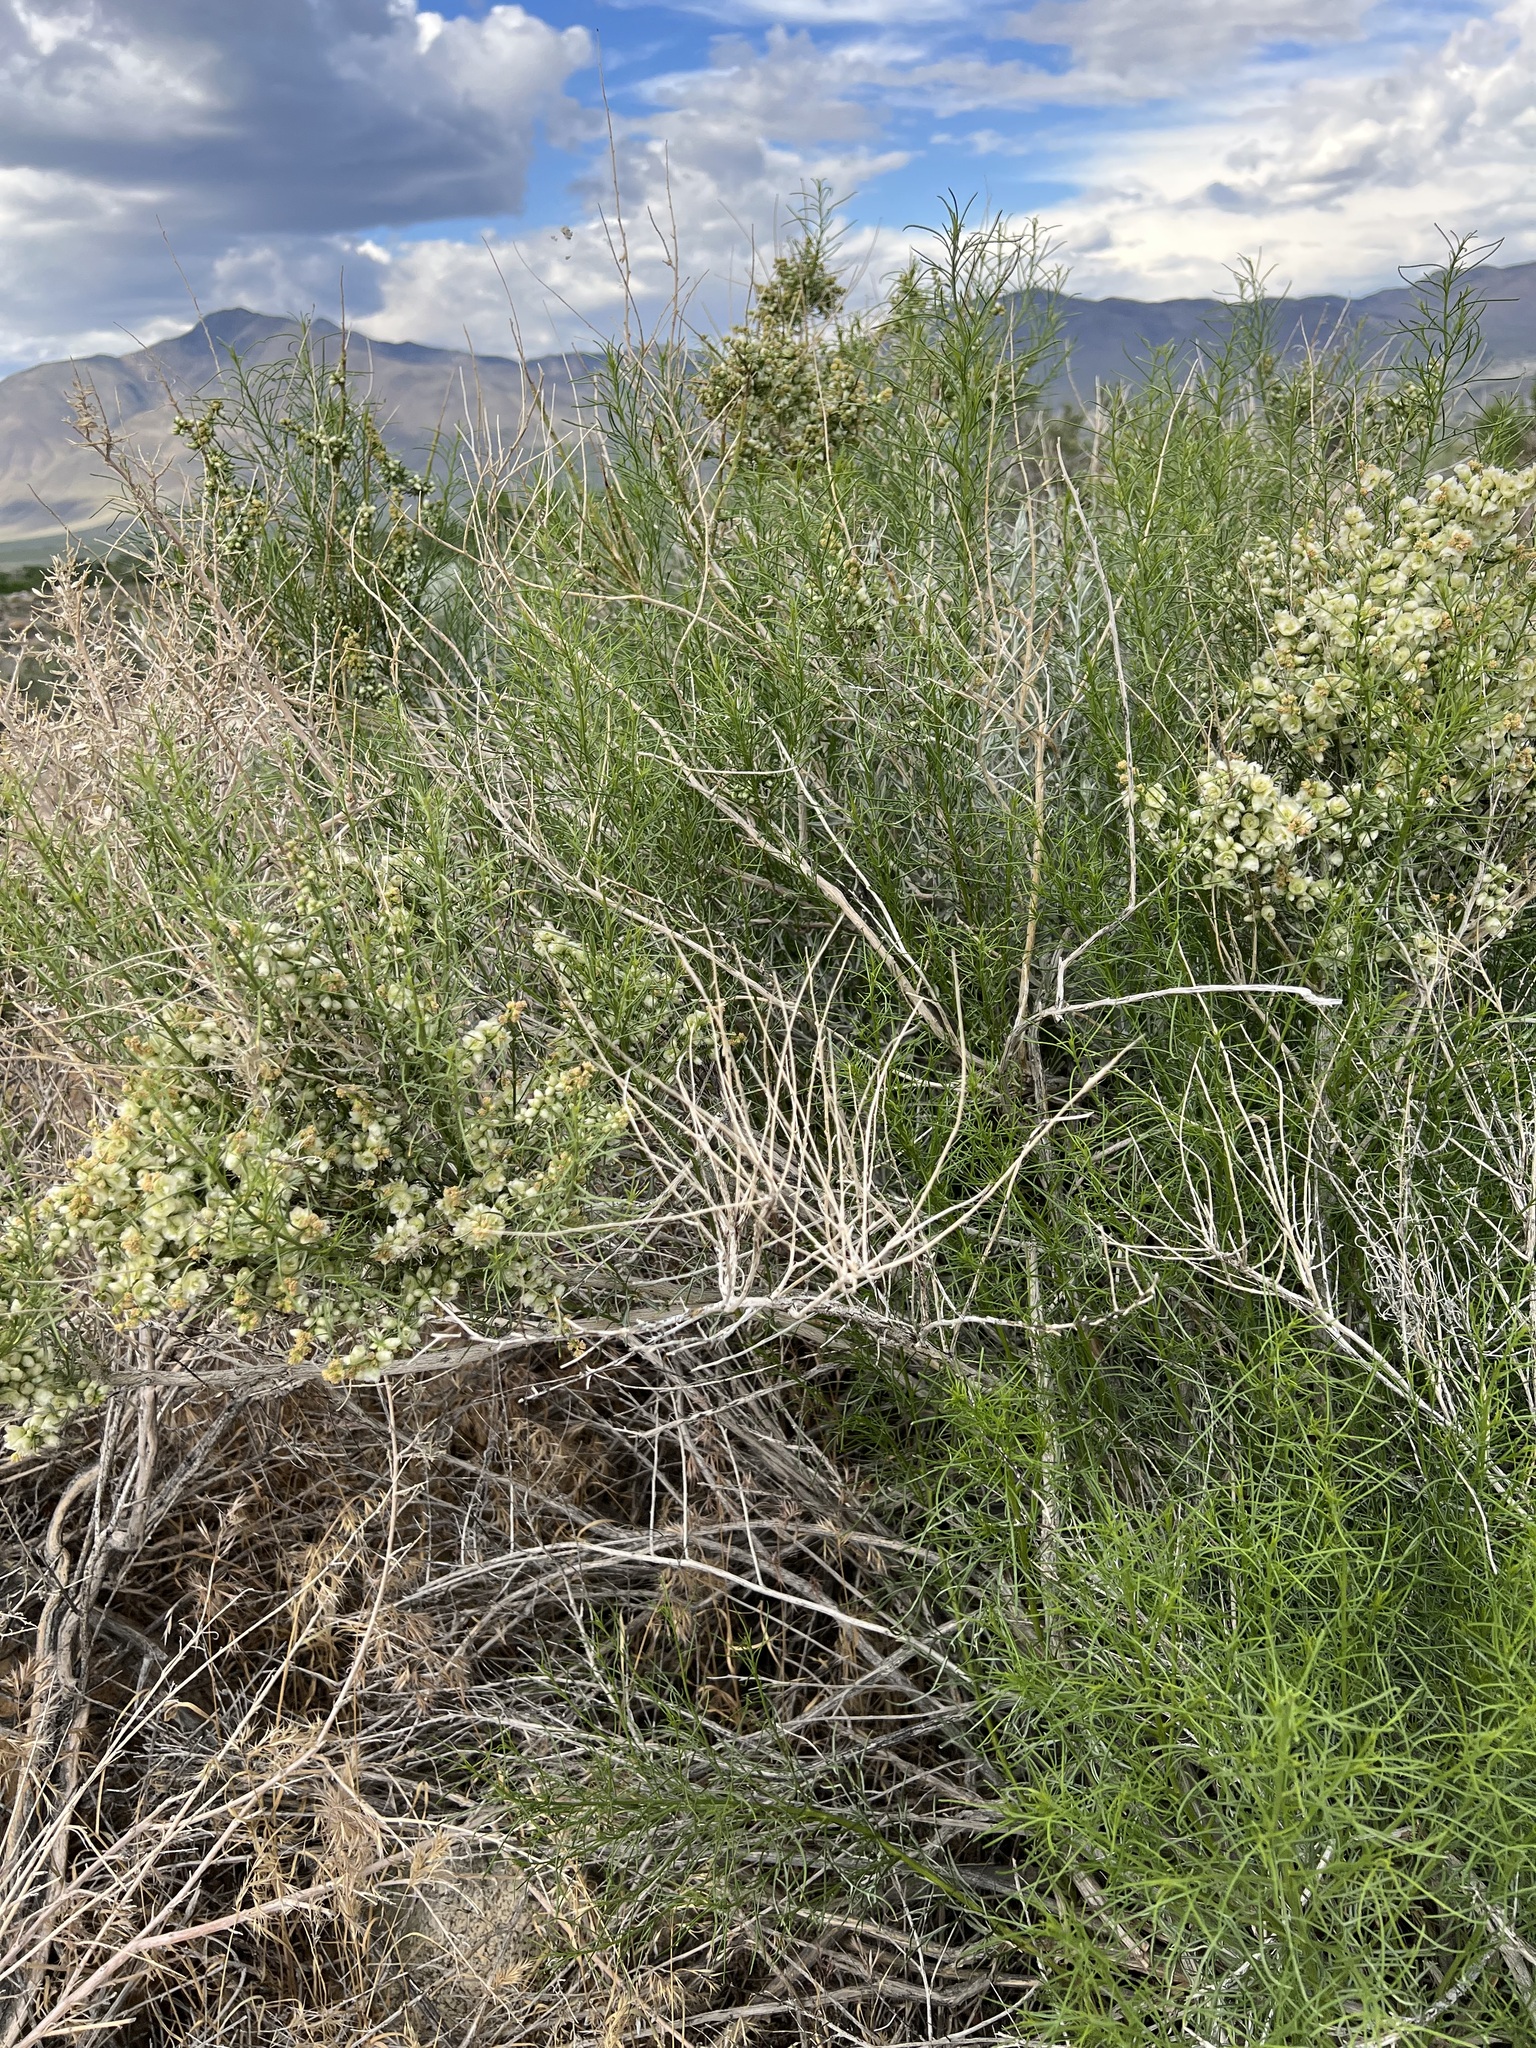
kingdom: Plantae
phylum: Tracheophyta
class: Magnoliopsida
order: Asterales
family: Asteraceae
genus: Ambrosia
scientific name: Ambrosia salsola
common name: Burrobrush
